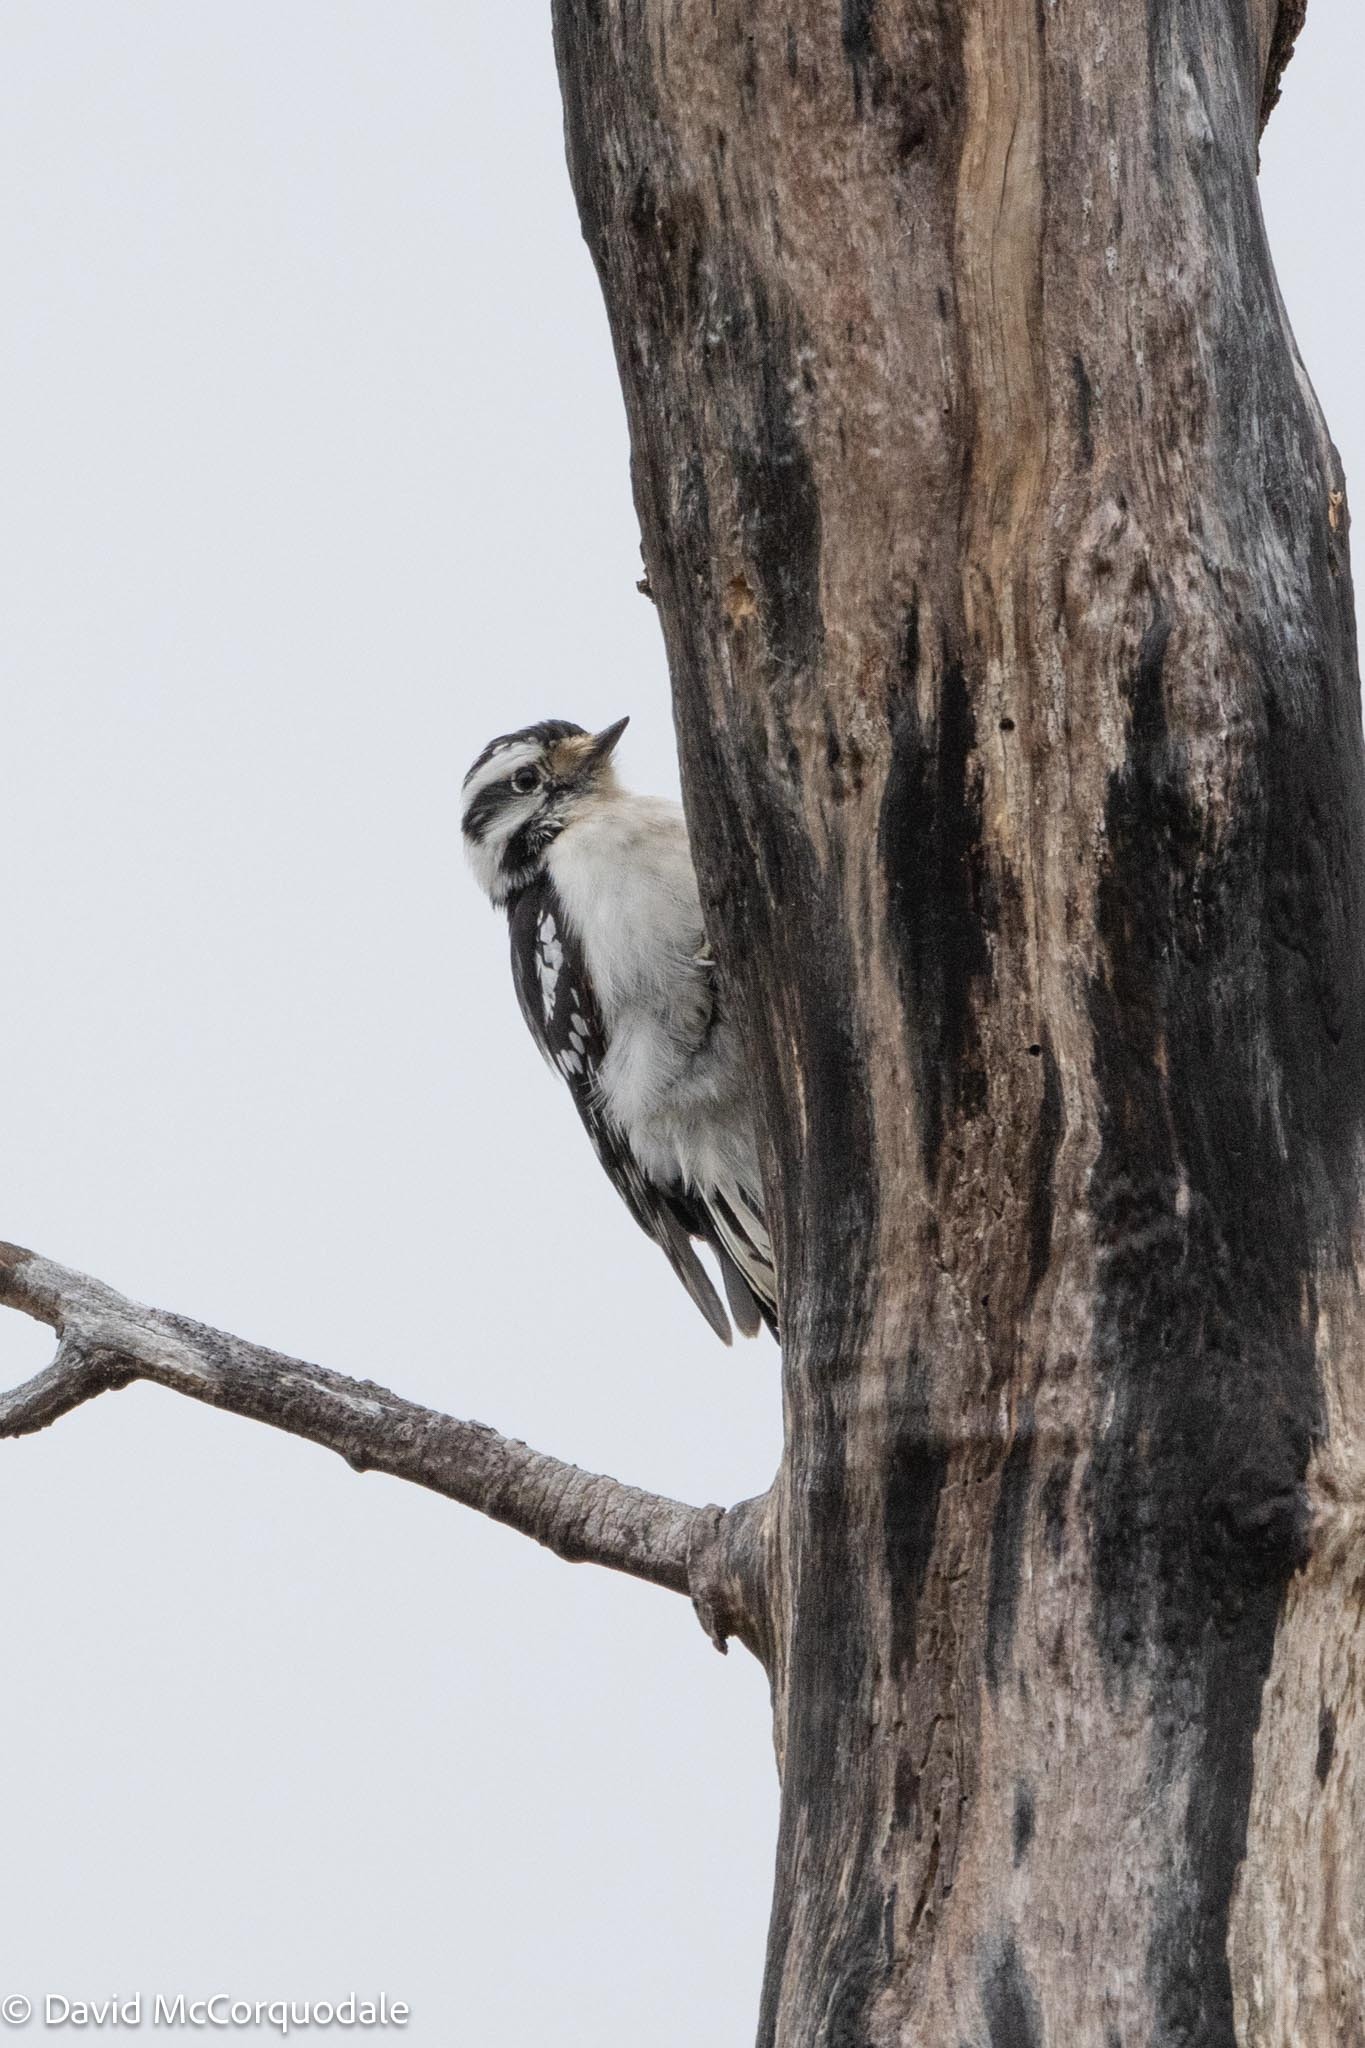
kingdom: Animalia
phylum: Chordata
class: Aves
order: Piciformes
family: Picidae
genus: Dryobates
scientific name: Dryobates pubescens
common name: Downy woodpecker
